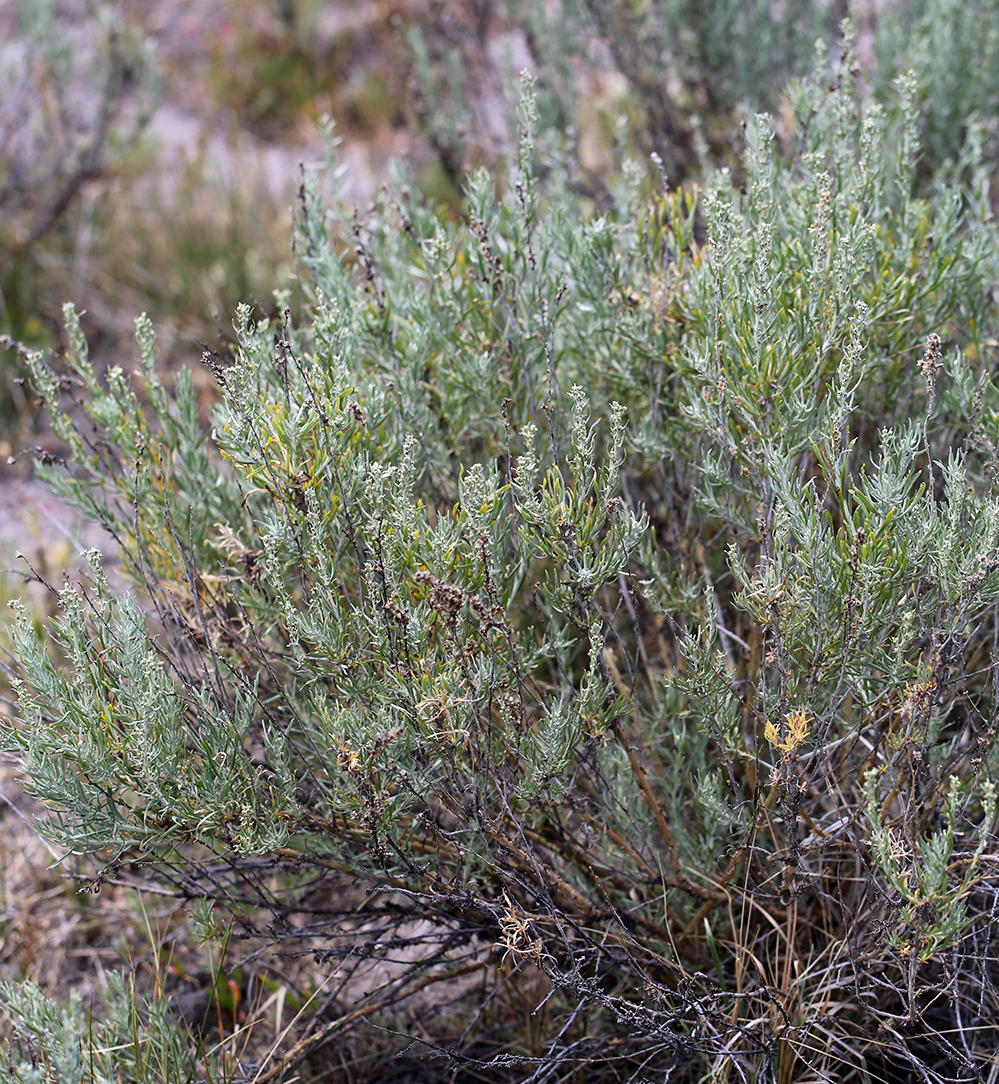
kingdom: Plantae
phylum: Tracheophyta
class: Magnoliopsida
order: Asterales
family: Asteraceae
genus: Artemisia
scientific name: Artemisia cana
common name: Silver sagebrush
